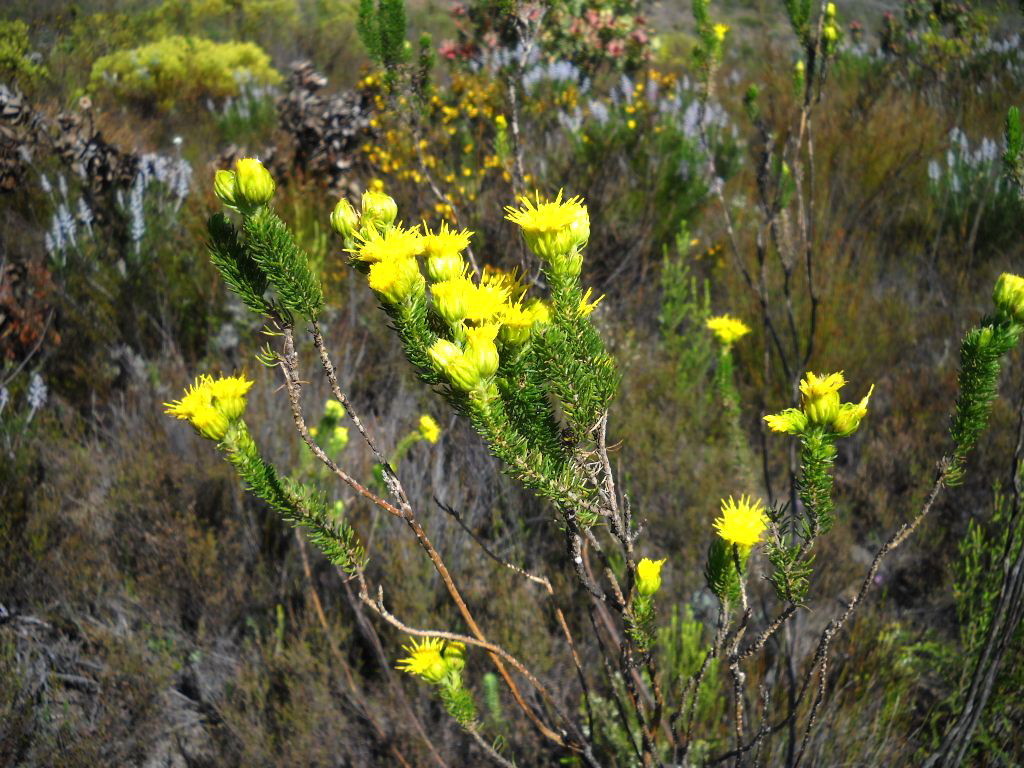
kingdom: Plantae
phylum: Tracheophyta
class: Magnoliopsida
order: Asterales
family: Asteraceae
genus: Pteronia
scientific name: Pteronia camphorata
